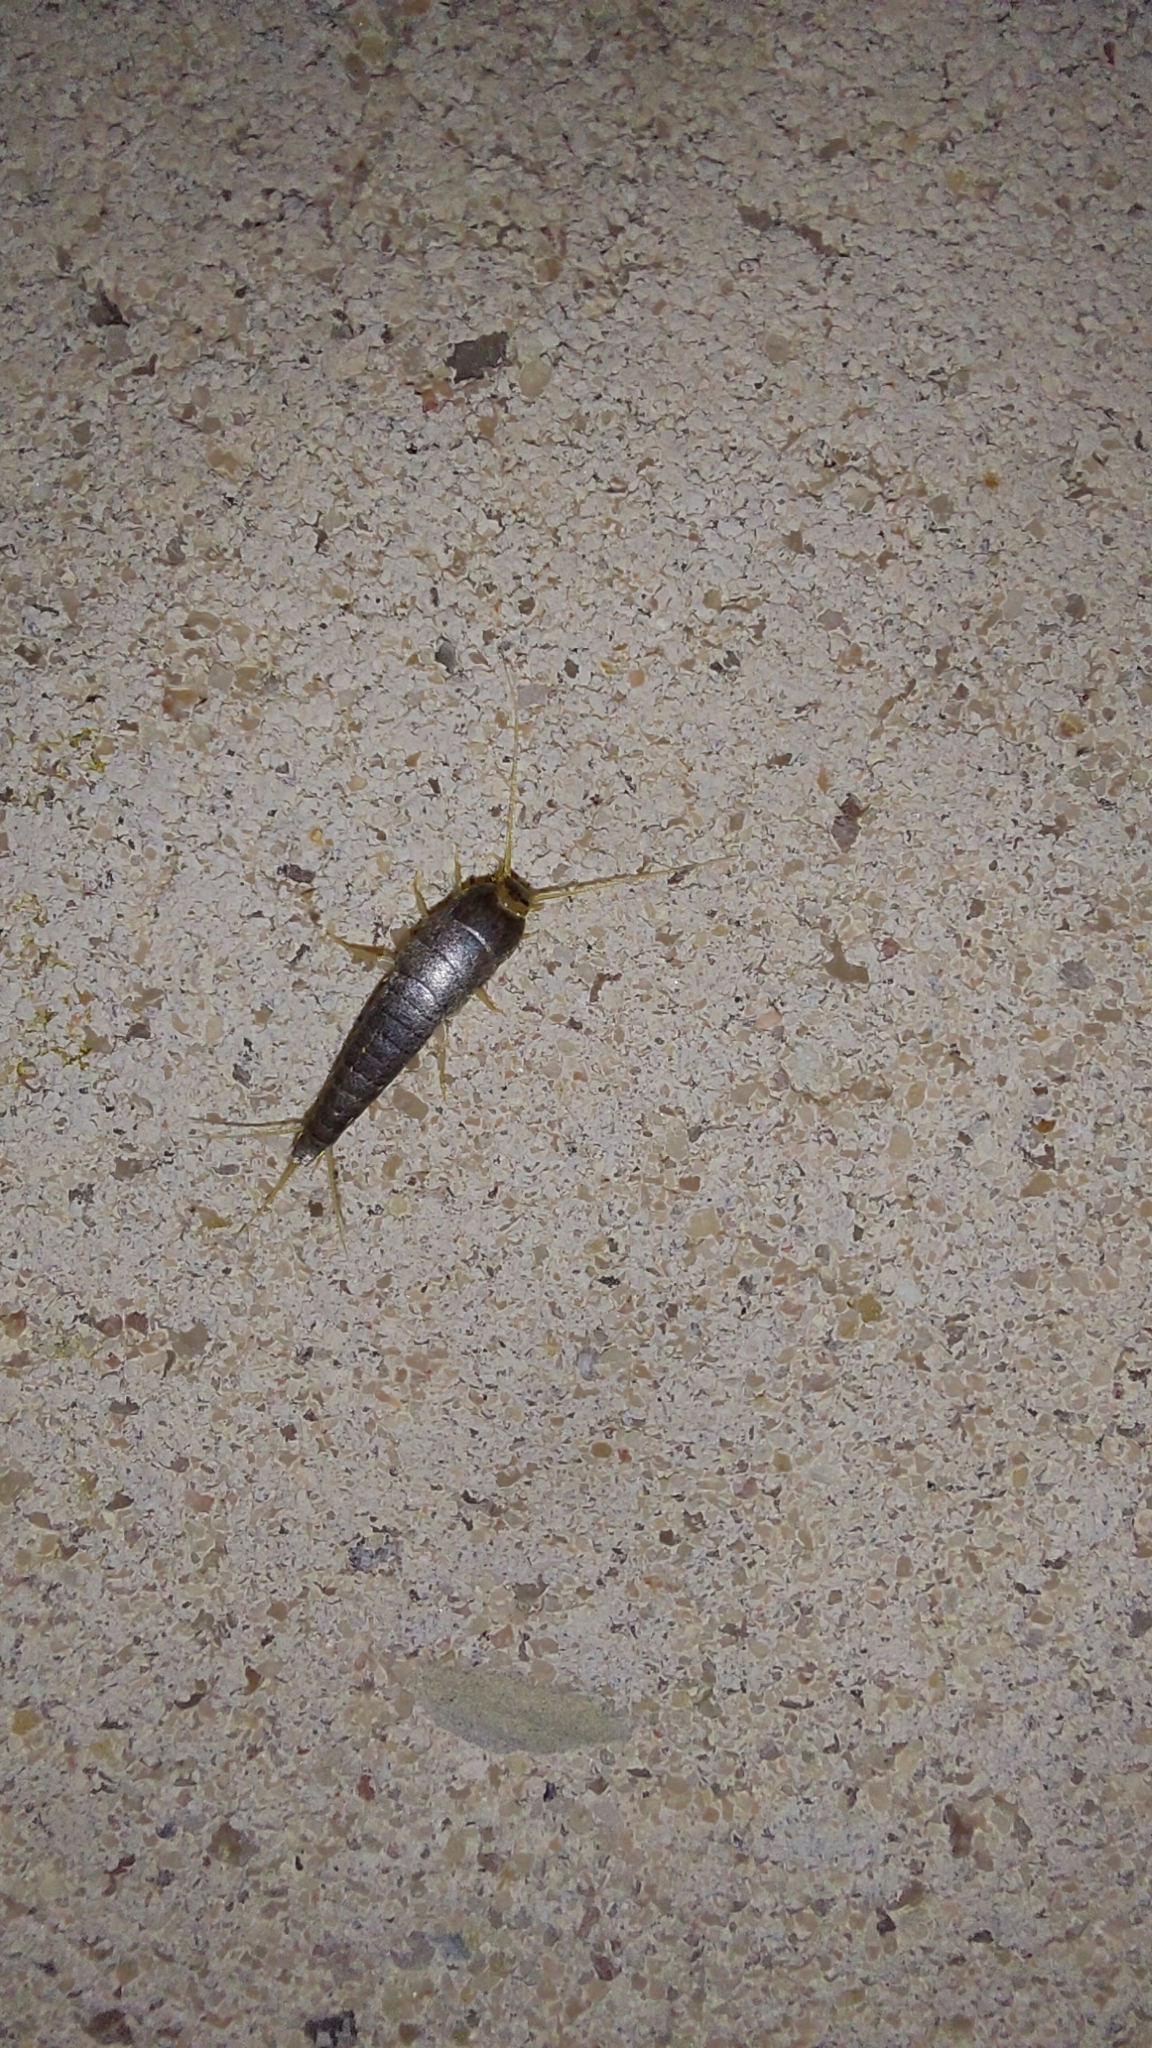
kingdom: Animalia
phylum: Arthropoda
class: Insecta
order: Zygentoma
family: Lepismatidae
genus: Lepisma
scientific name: Lepisma saccharinum
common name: Silverfish
